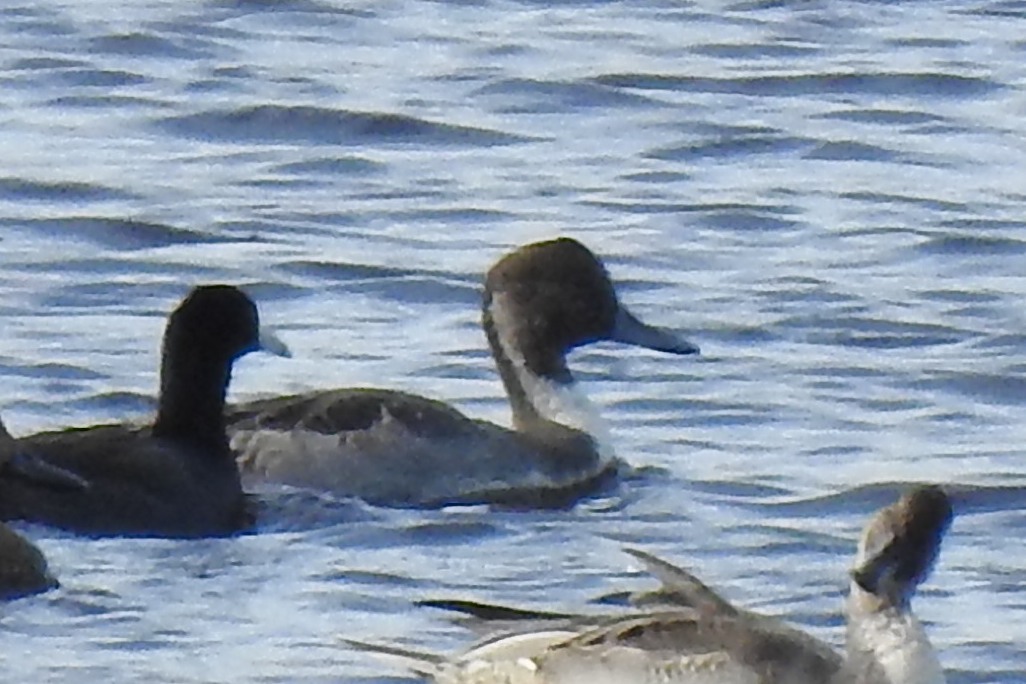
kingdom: Animalia
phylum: Chordata
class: Aves
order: Anseriformes
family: Anatidae
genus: Anas
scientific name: Anas acuta
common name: Northern pintail
